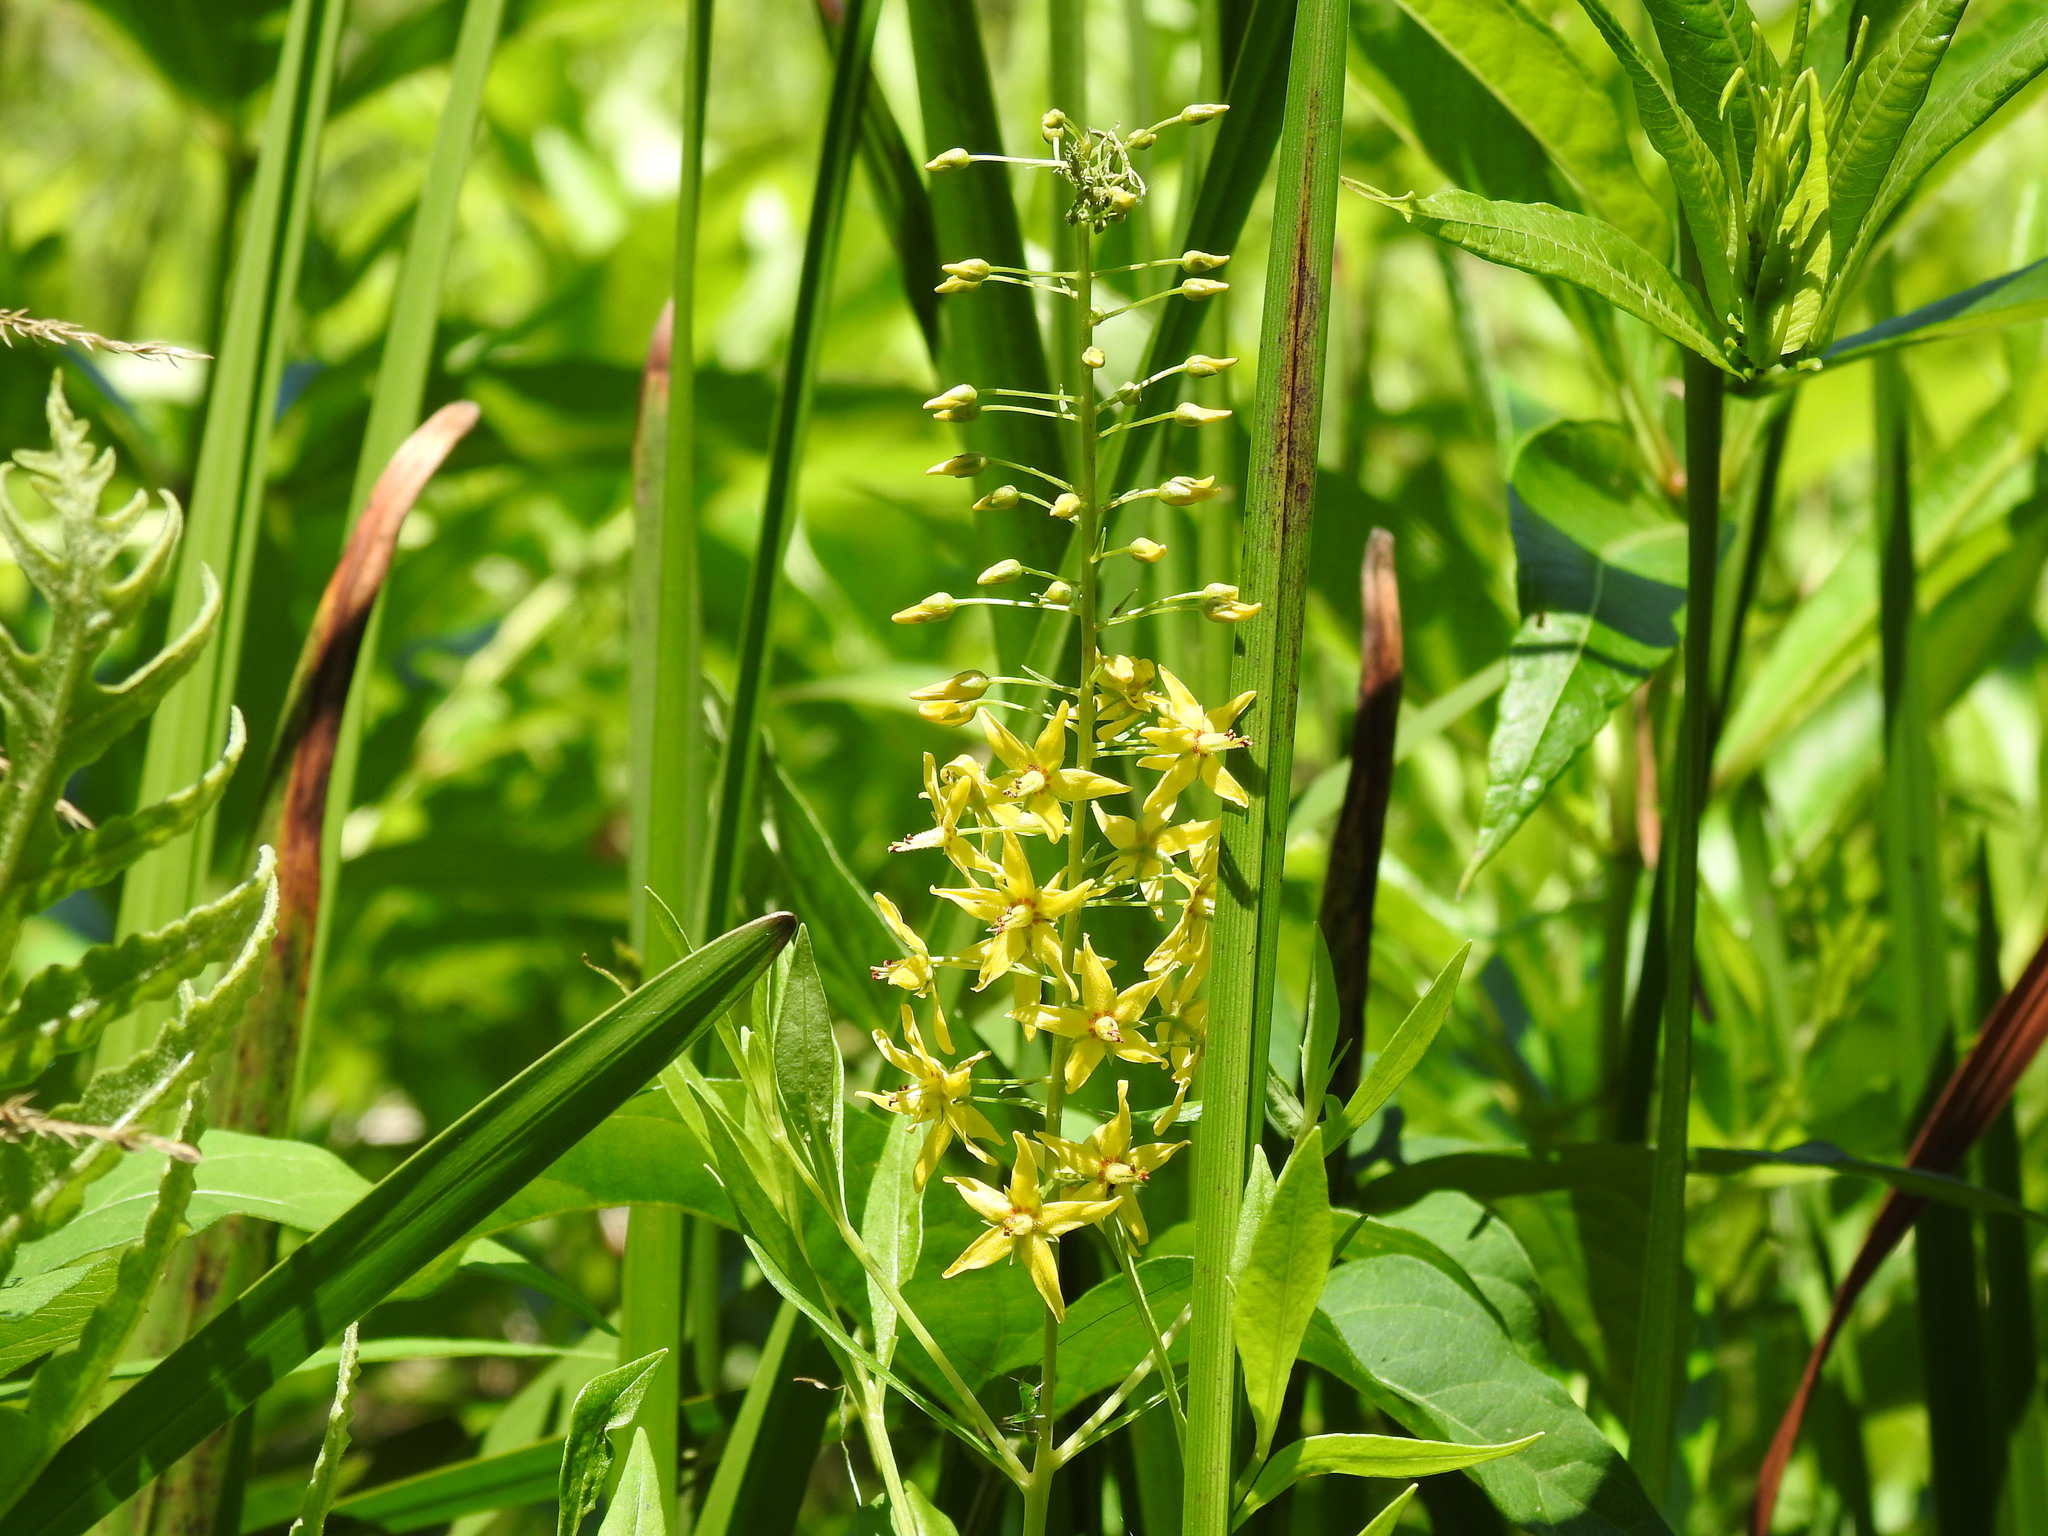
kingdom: Plantae
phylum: Tracheophyta
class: Magnoliopsida
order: Ericales
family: Primulaceae
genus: Lysimachia
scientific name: Lysimachia terrestris
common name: Lake loosestrife
